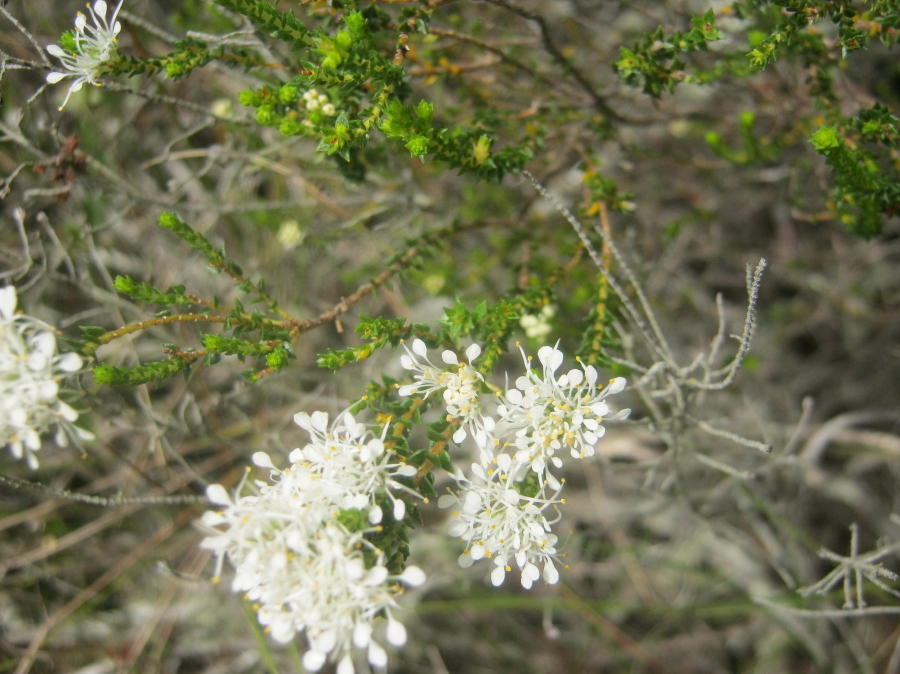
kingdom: Plantae
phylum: Tracheophyta
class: Magnoliopsida
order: Sapindales
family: Rutaceae
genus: Agathosma
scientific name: Agathosma capensis
